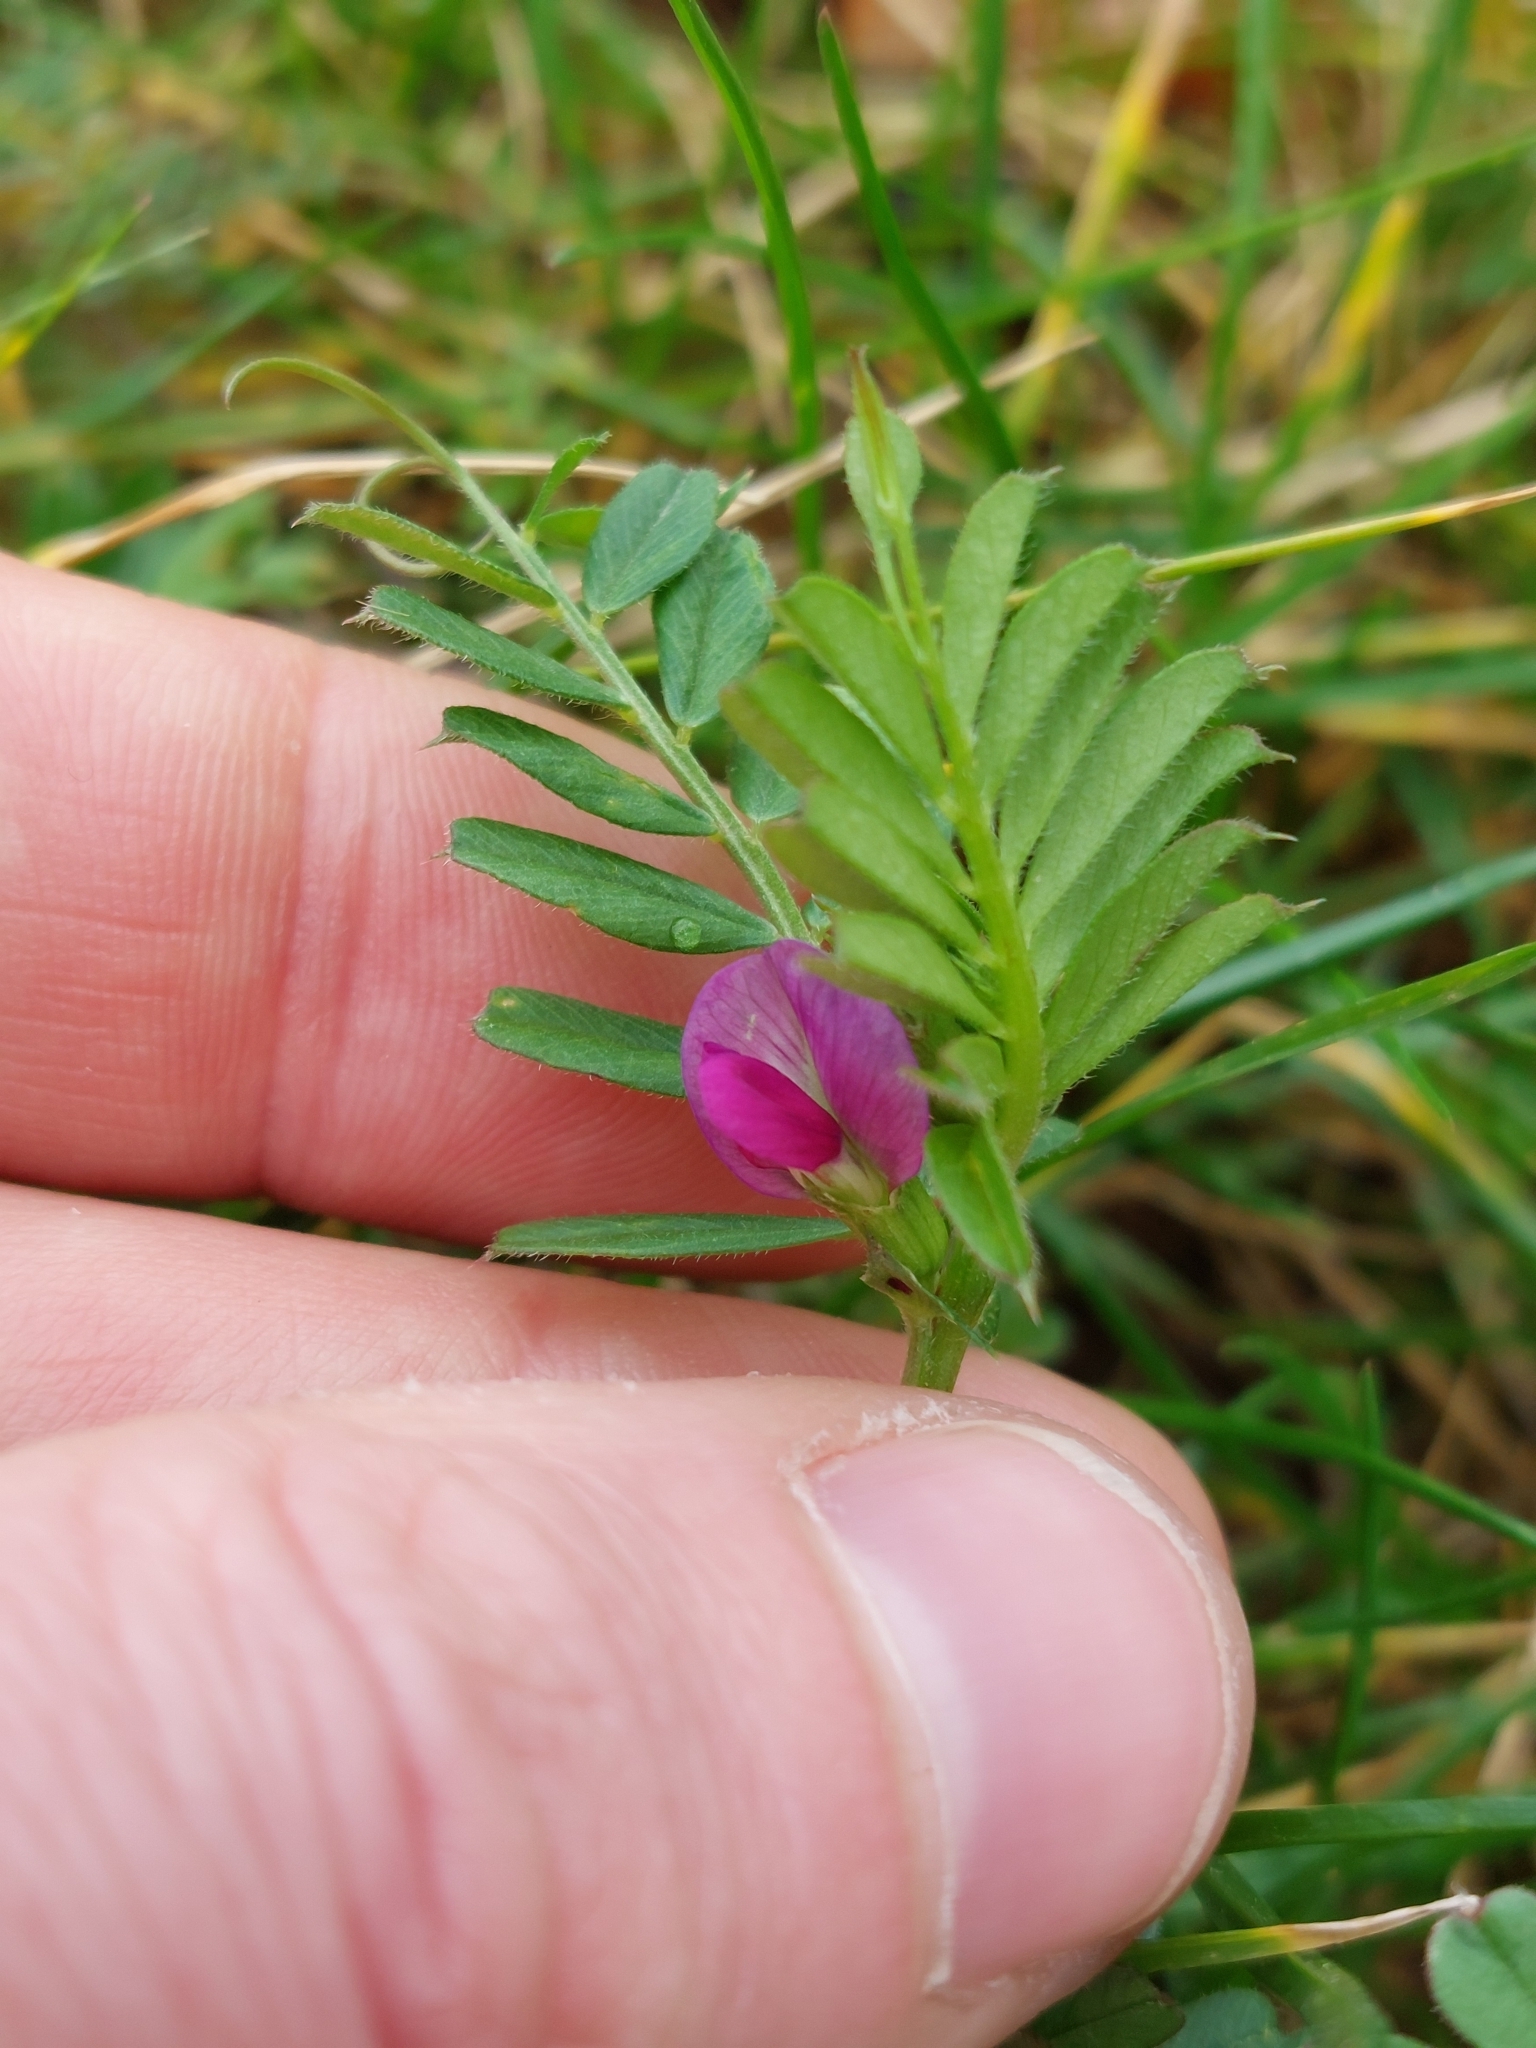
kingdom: Plantae
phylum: Tracheophyta
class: Magnoliopsida
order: Fabales
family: Fabaceae
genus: Vicia
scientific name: Vicia sativa
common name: Garden vetch
